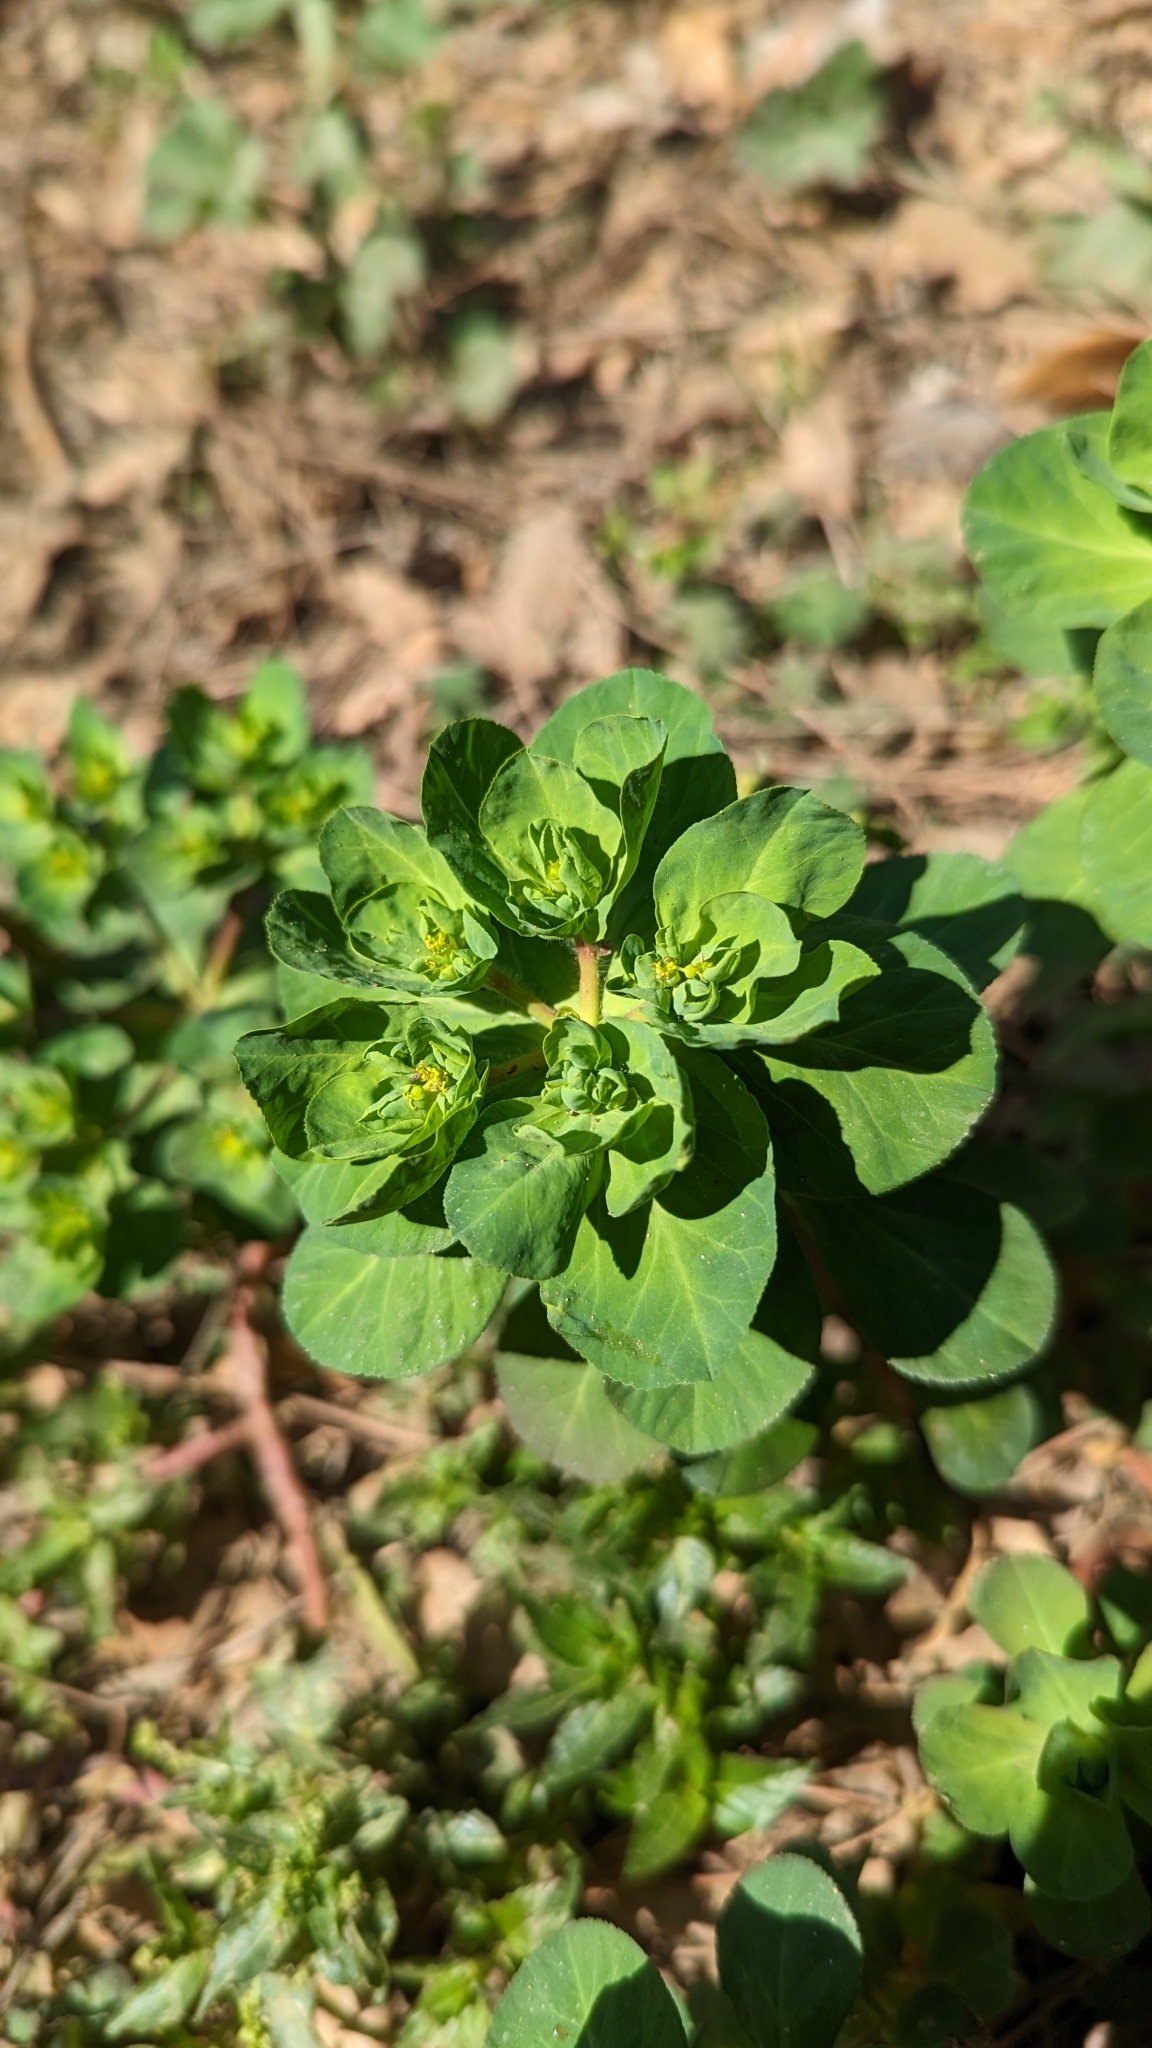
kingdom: Plantae
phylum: Tracheophyta
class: Magnoliopsida
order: Malpighiales
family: Euphorbiaceae
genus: Euphorbia
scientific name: Euphorbia helioscopia
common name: Sun spurge
